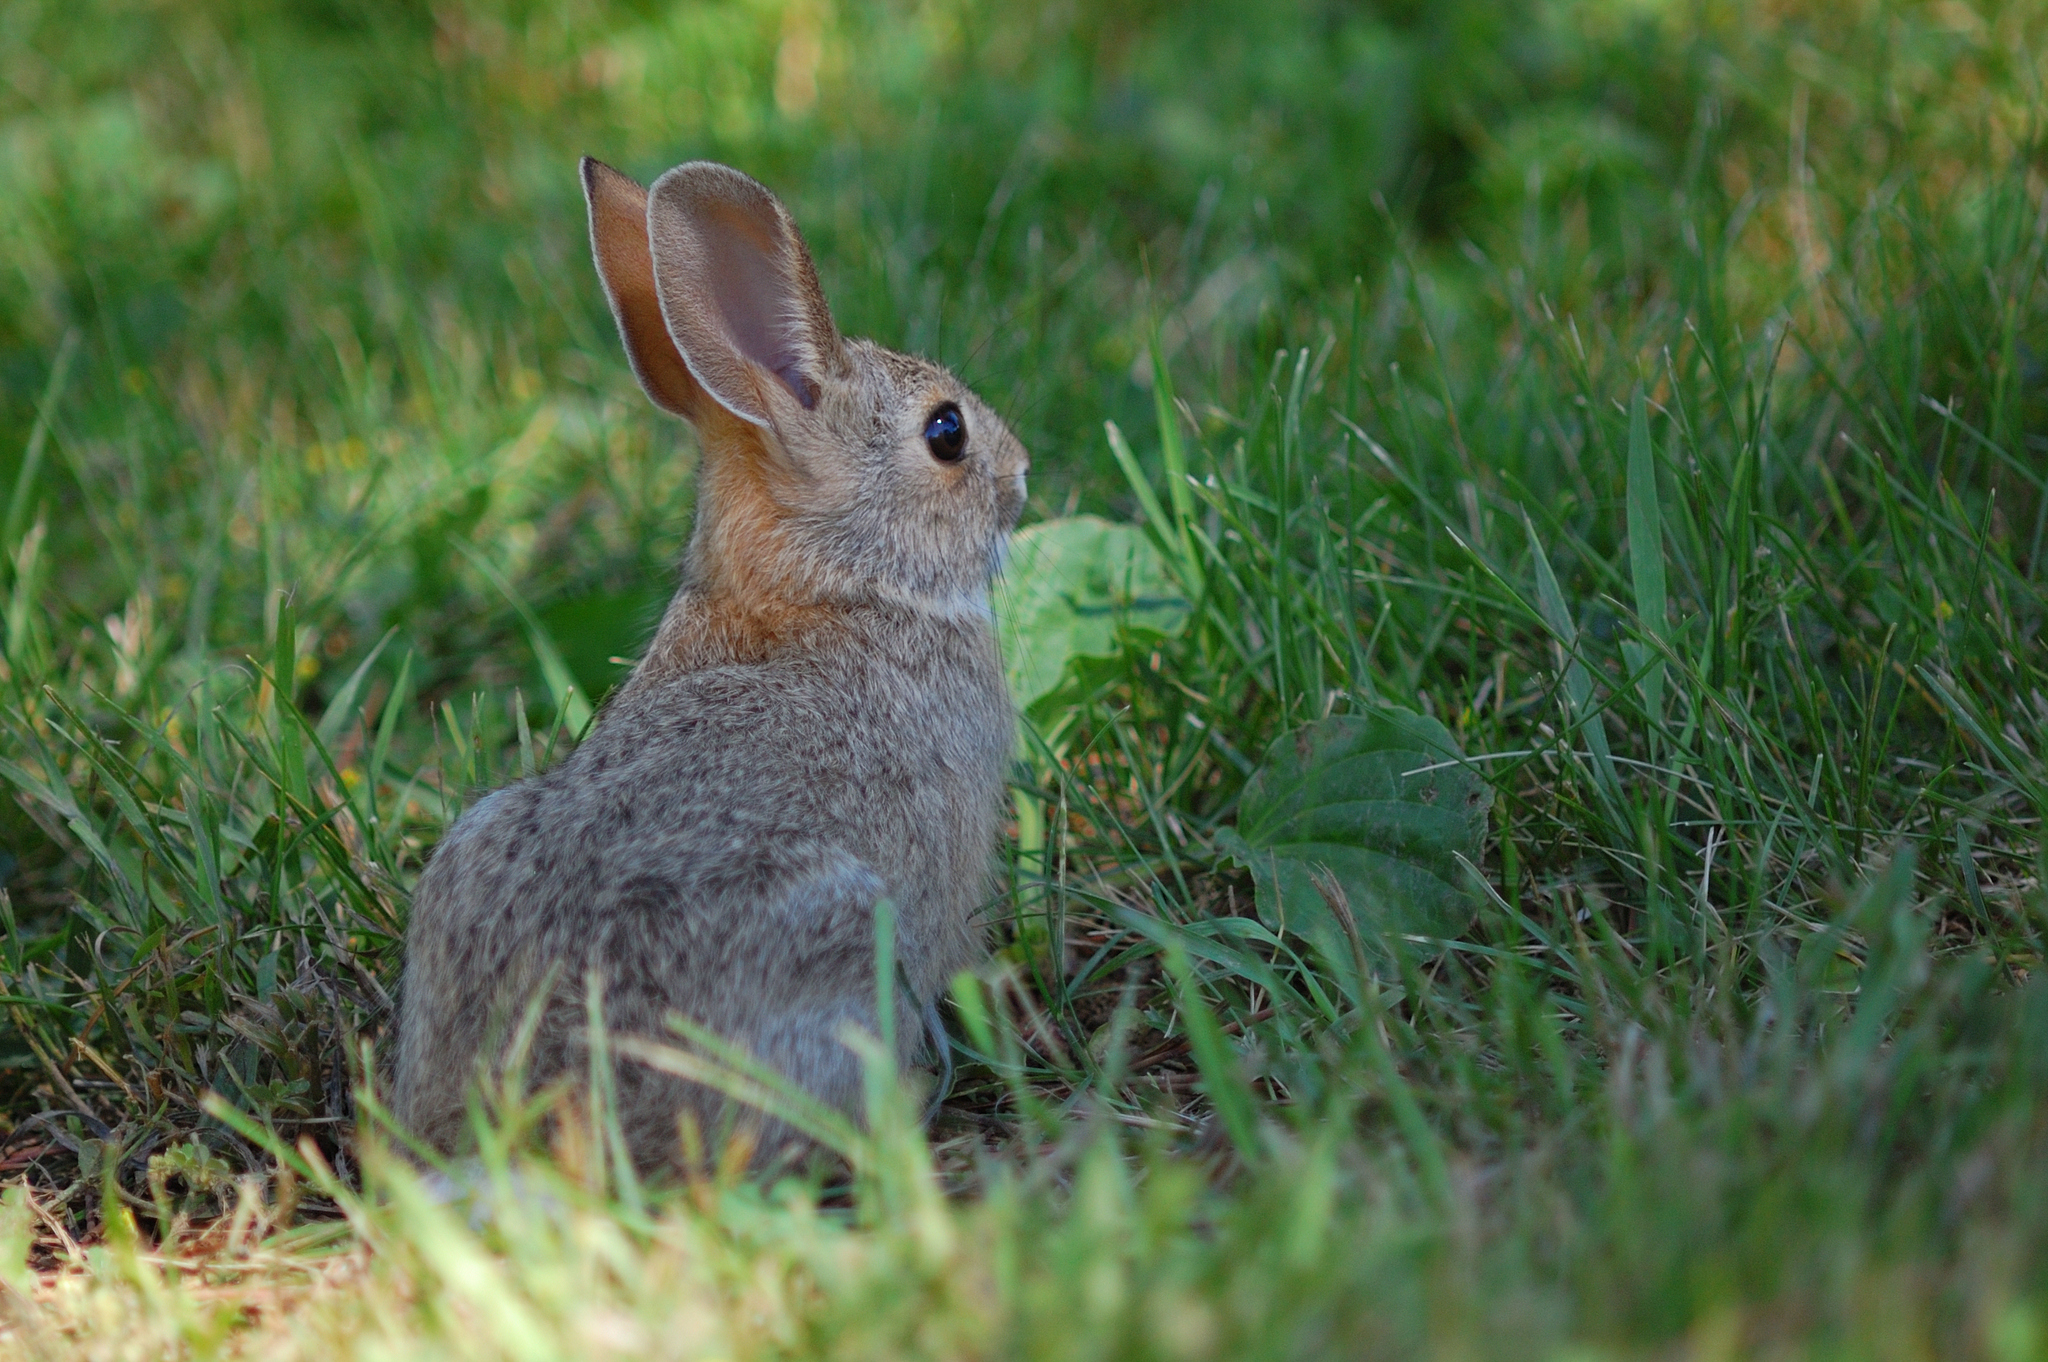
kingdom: Animalia
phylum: Chordata
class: Mammalia
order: Lagomorpha
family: Leporidae
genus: Sylvilagus
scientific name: Sylvilagus floridanus
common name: Eastern cottontail
